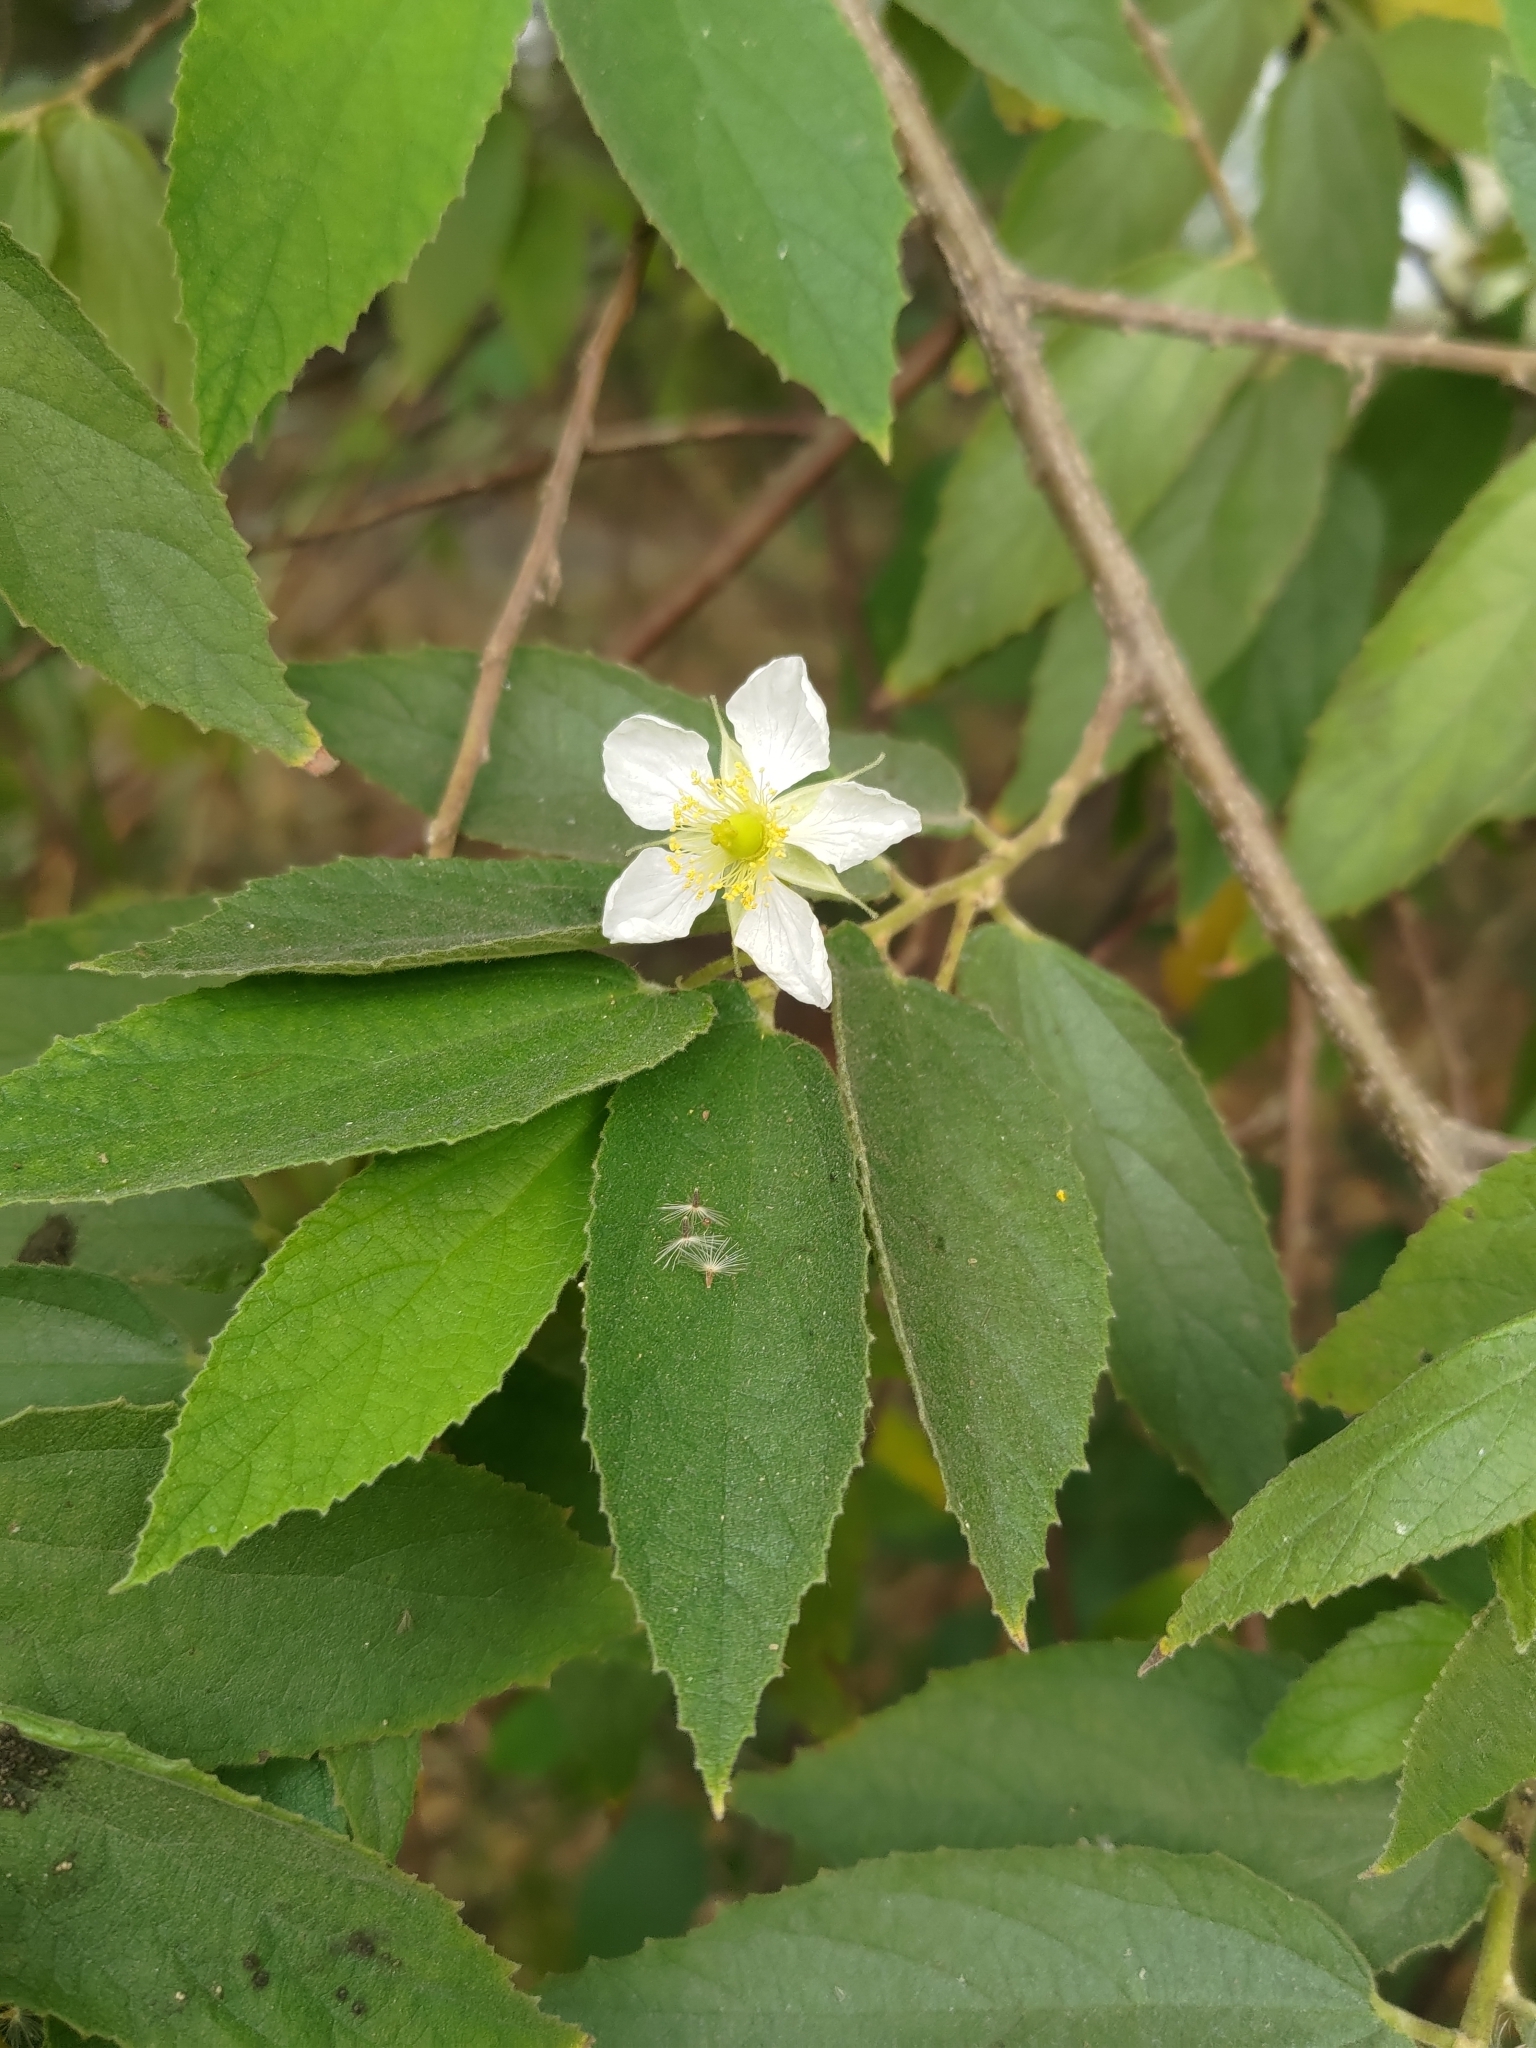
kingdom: Plantae
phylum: Tracheophyta
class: Magnoliopsida
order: Malvales
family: Muntingiaceae
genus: Muntingia
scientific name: Muntingia calabura
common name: Strawberrytree
